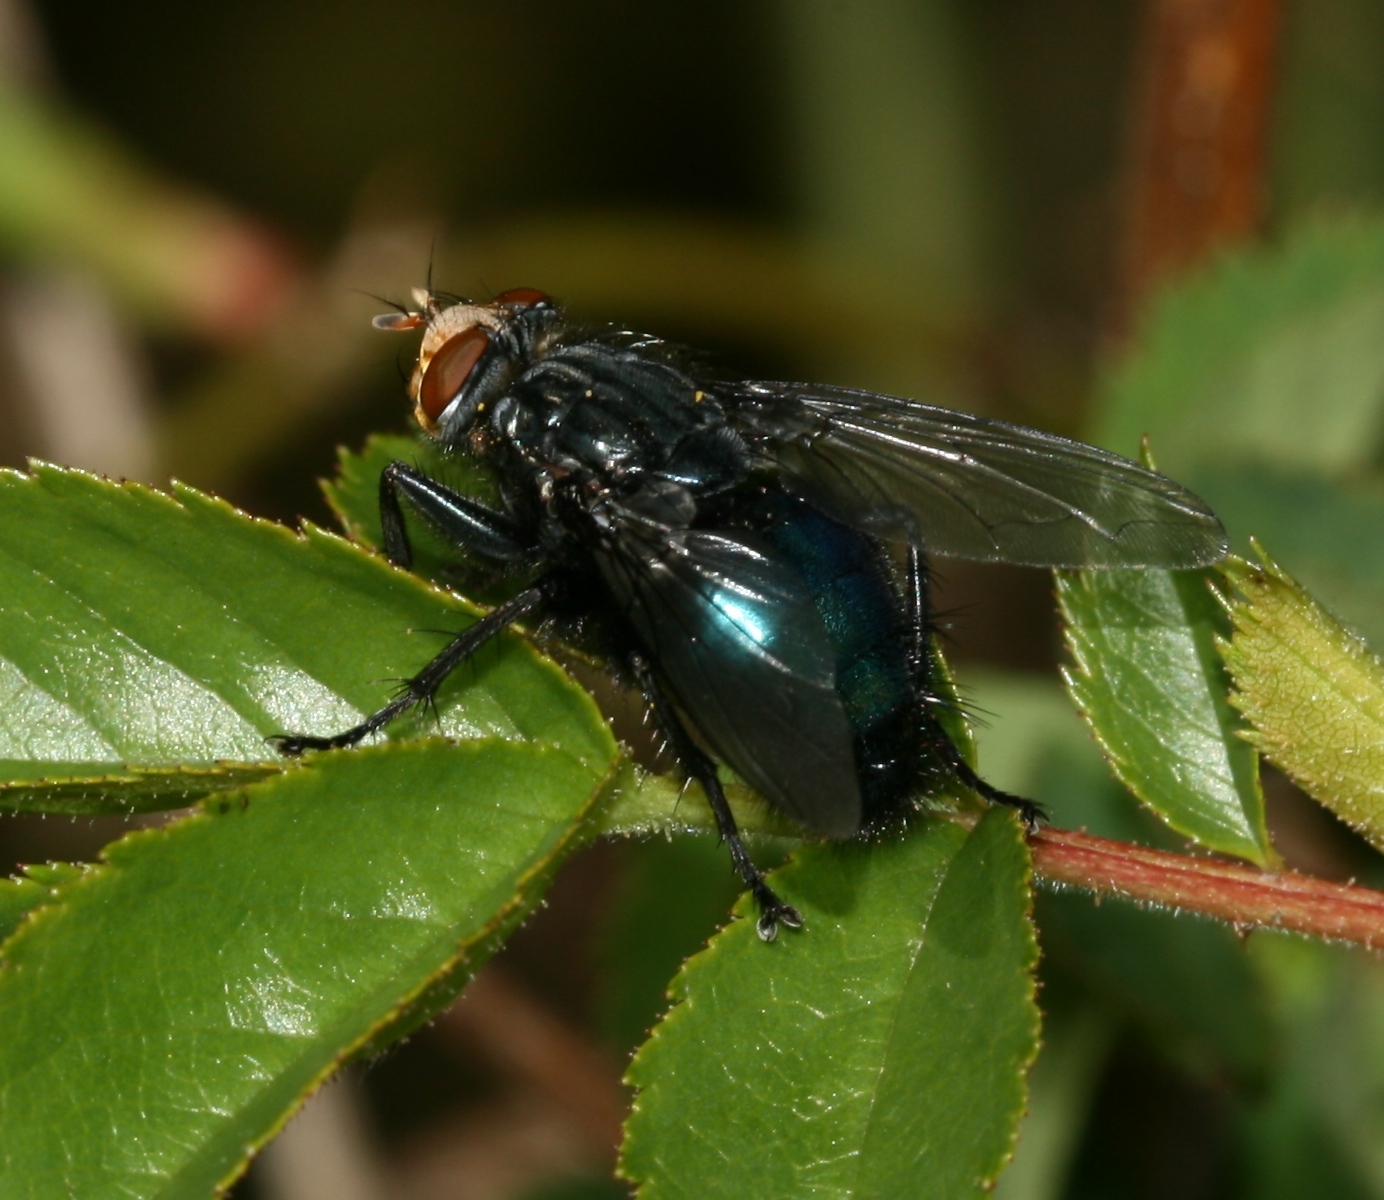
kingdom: Animalia
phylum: Arthropoda
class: Insecta
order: Diptera
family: Calliphoridae
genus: Cynomya
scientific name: Cynomya mortuorum
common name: Bluebottle blow fly
